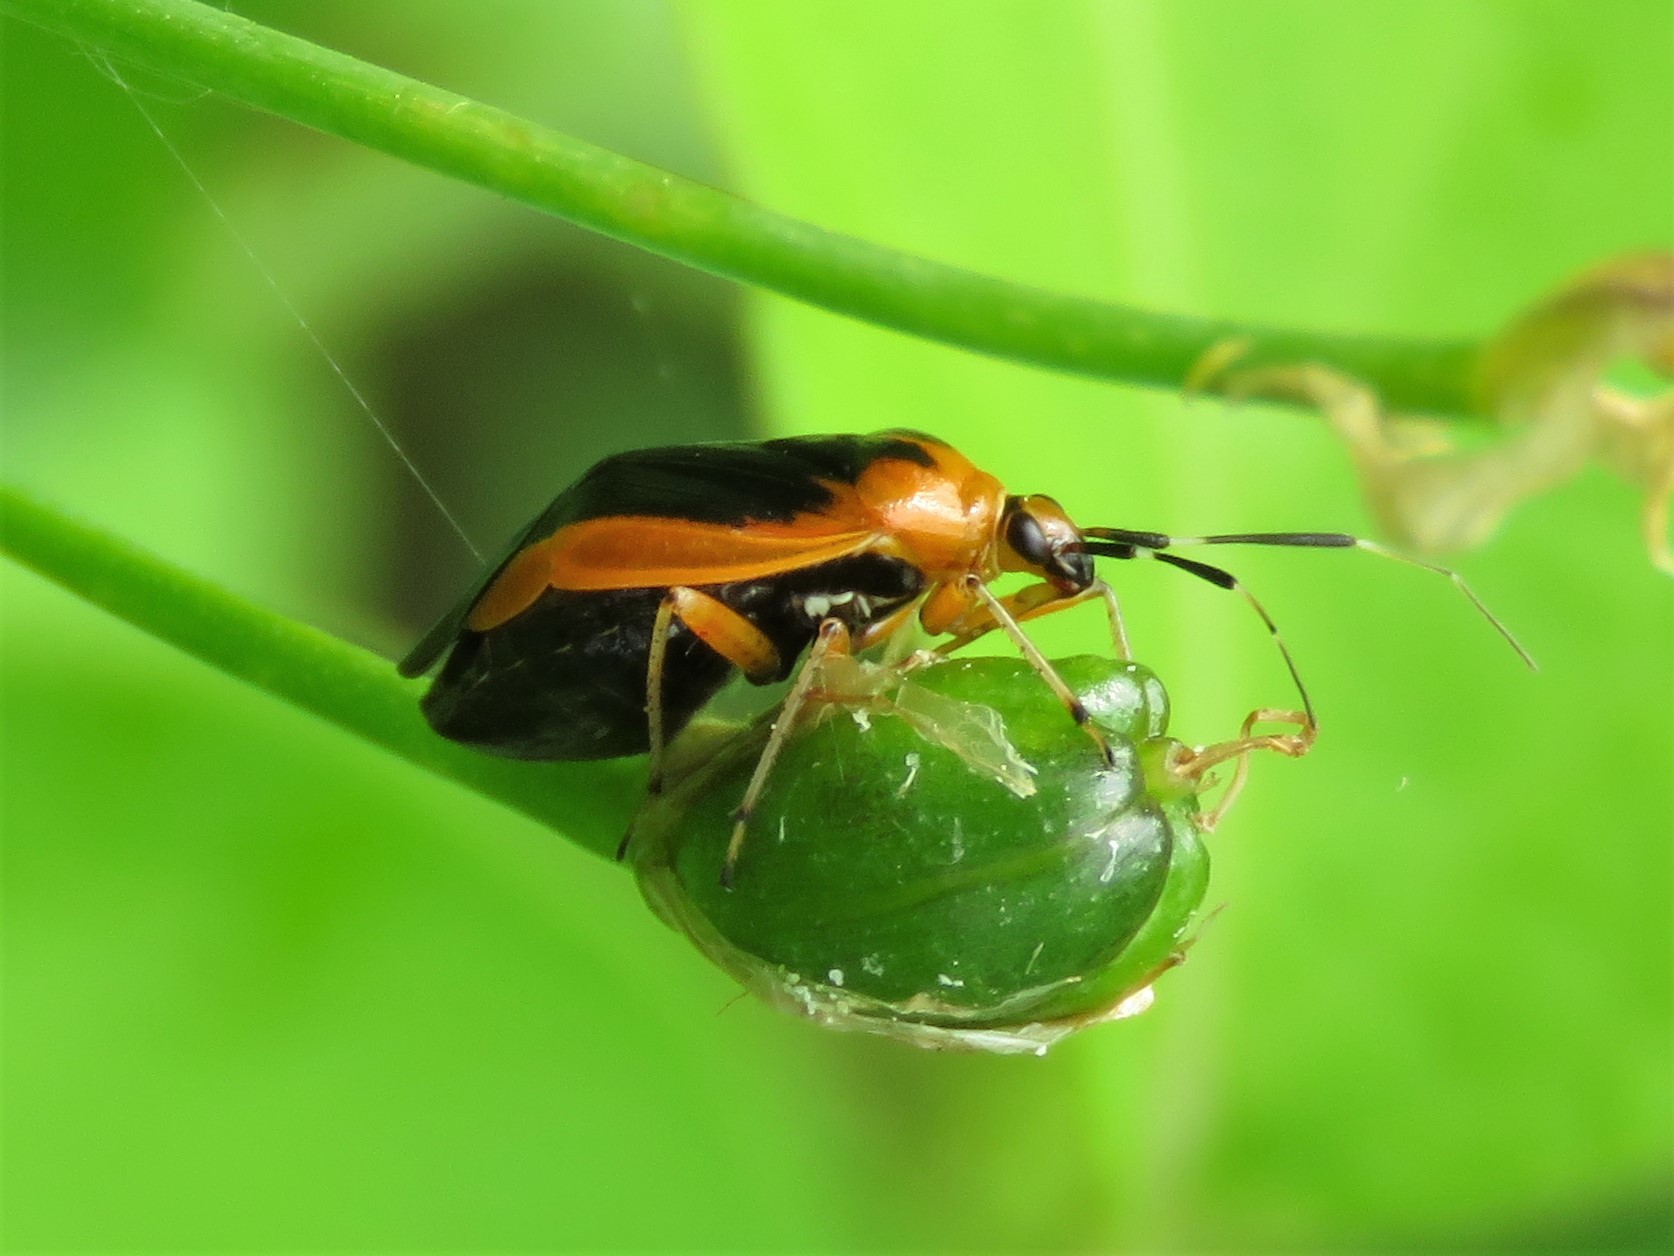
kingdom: Animalia
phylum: Arthropoda
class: Insecta
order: Hemiptera
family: Miridae
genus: Metriorrhynchomiris
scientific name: Metriorrhynchomiris dislocatus
